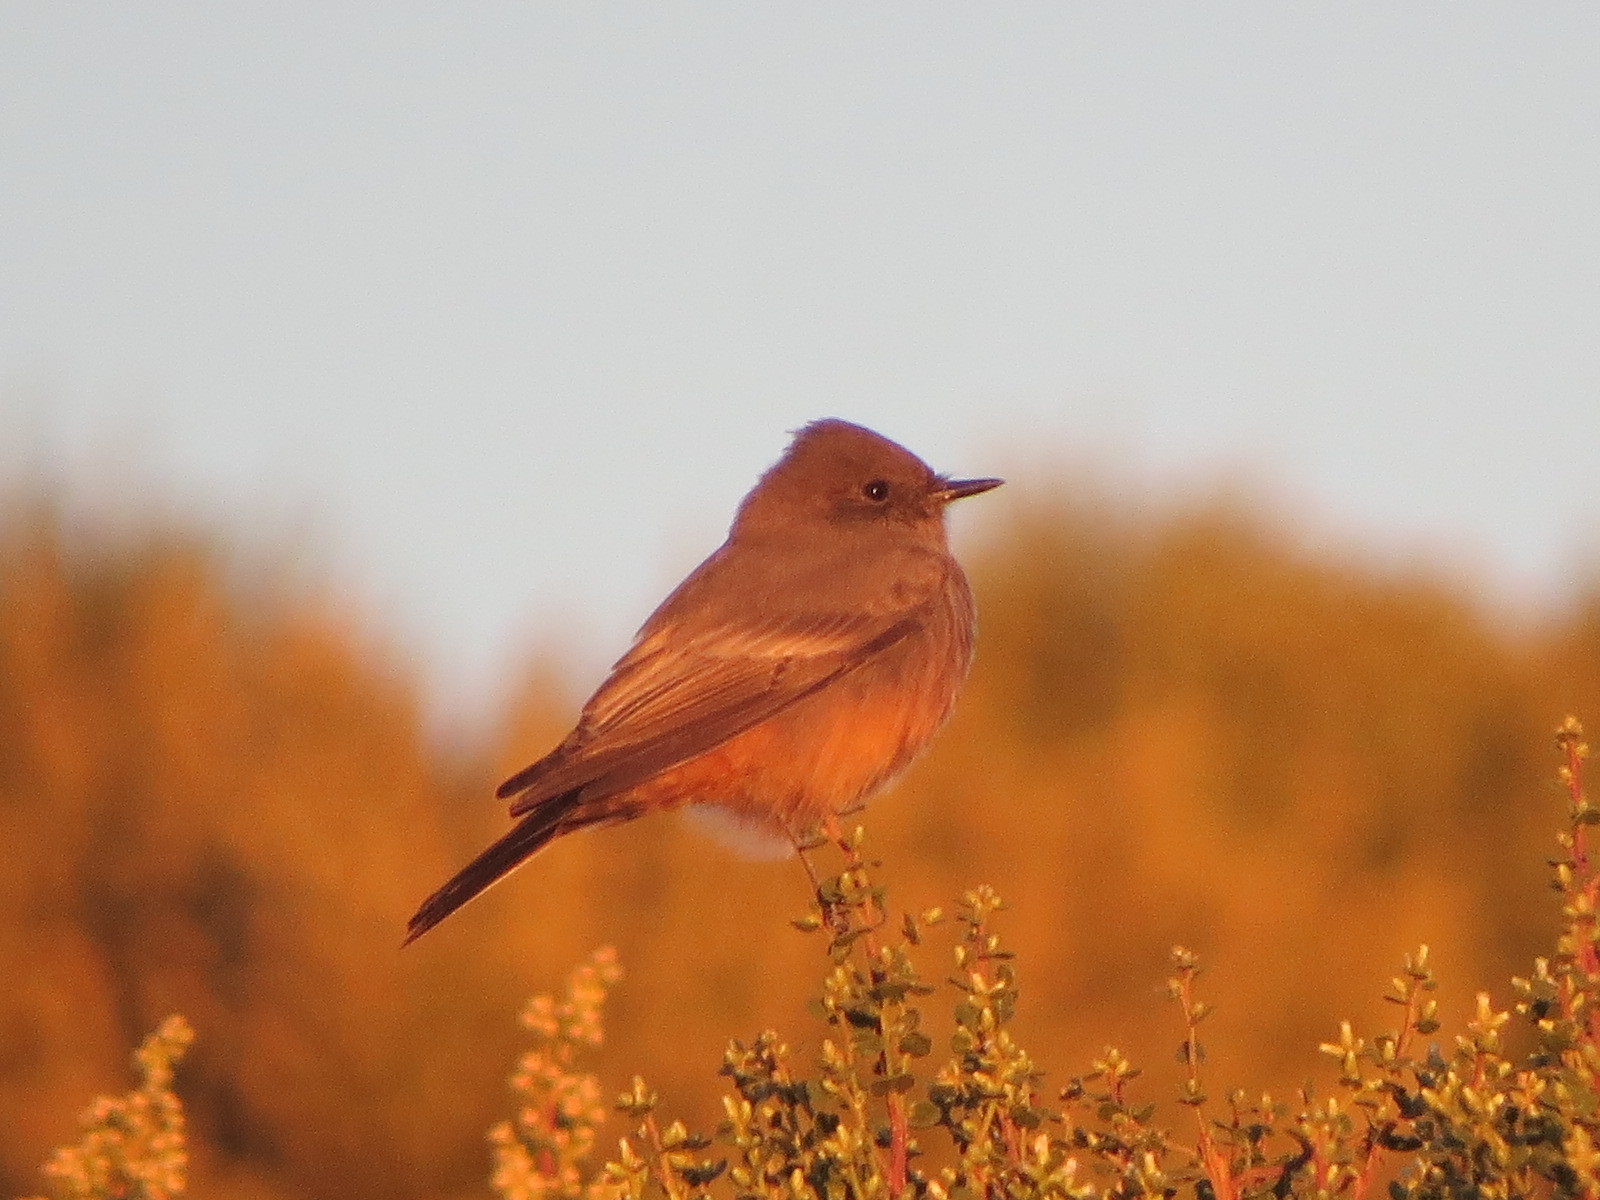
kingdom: Animalia
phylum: Chordata
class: Aves
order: Passeriformes
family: Tyrannidae
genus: Sayornis
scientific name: Sayornis saya
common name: Say's phoebe
